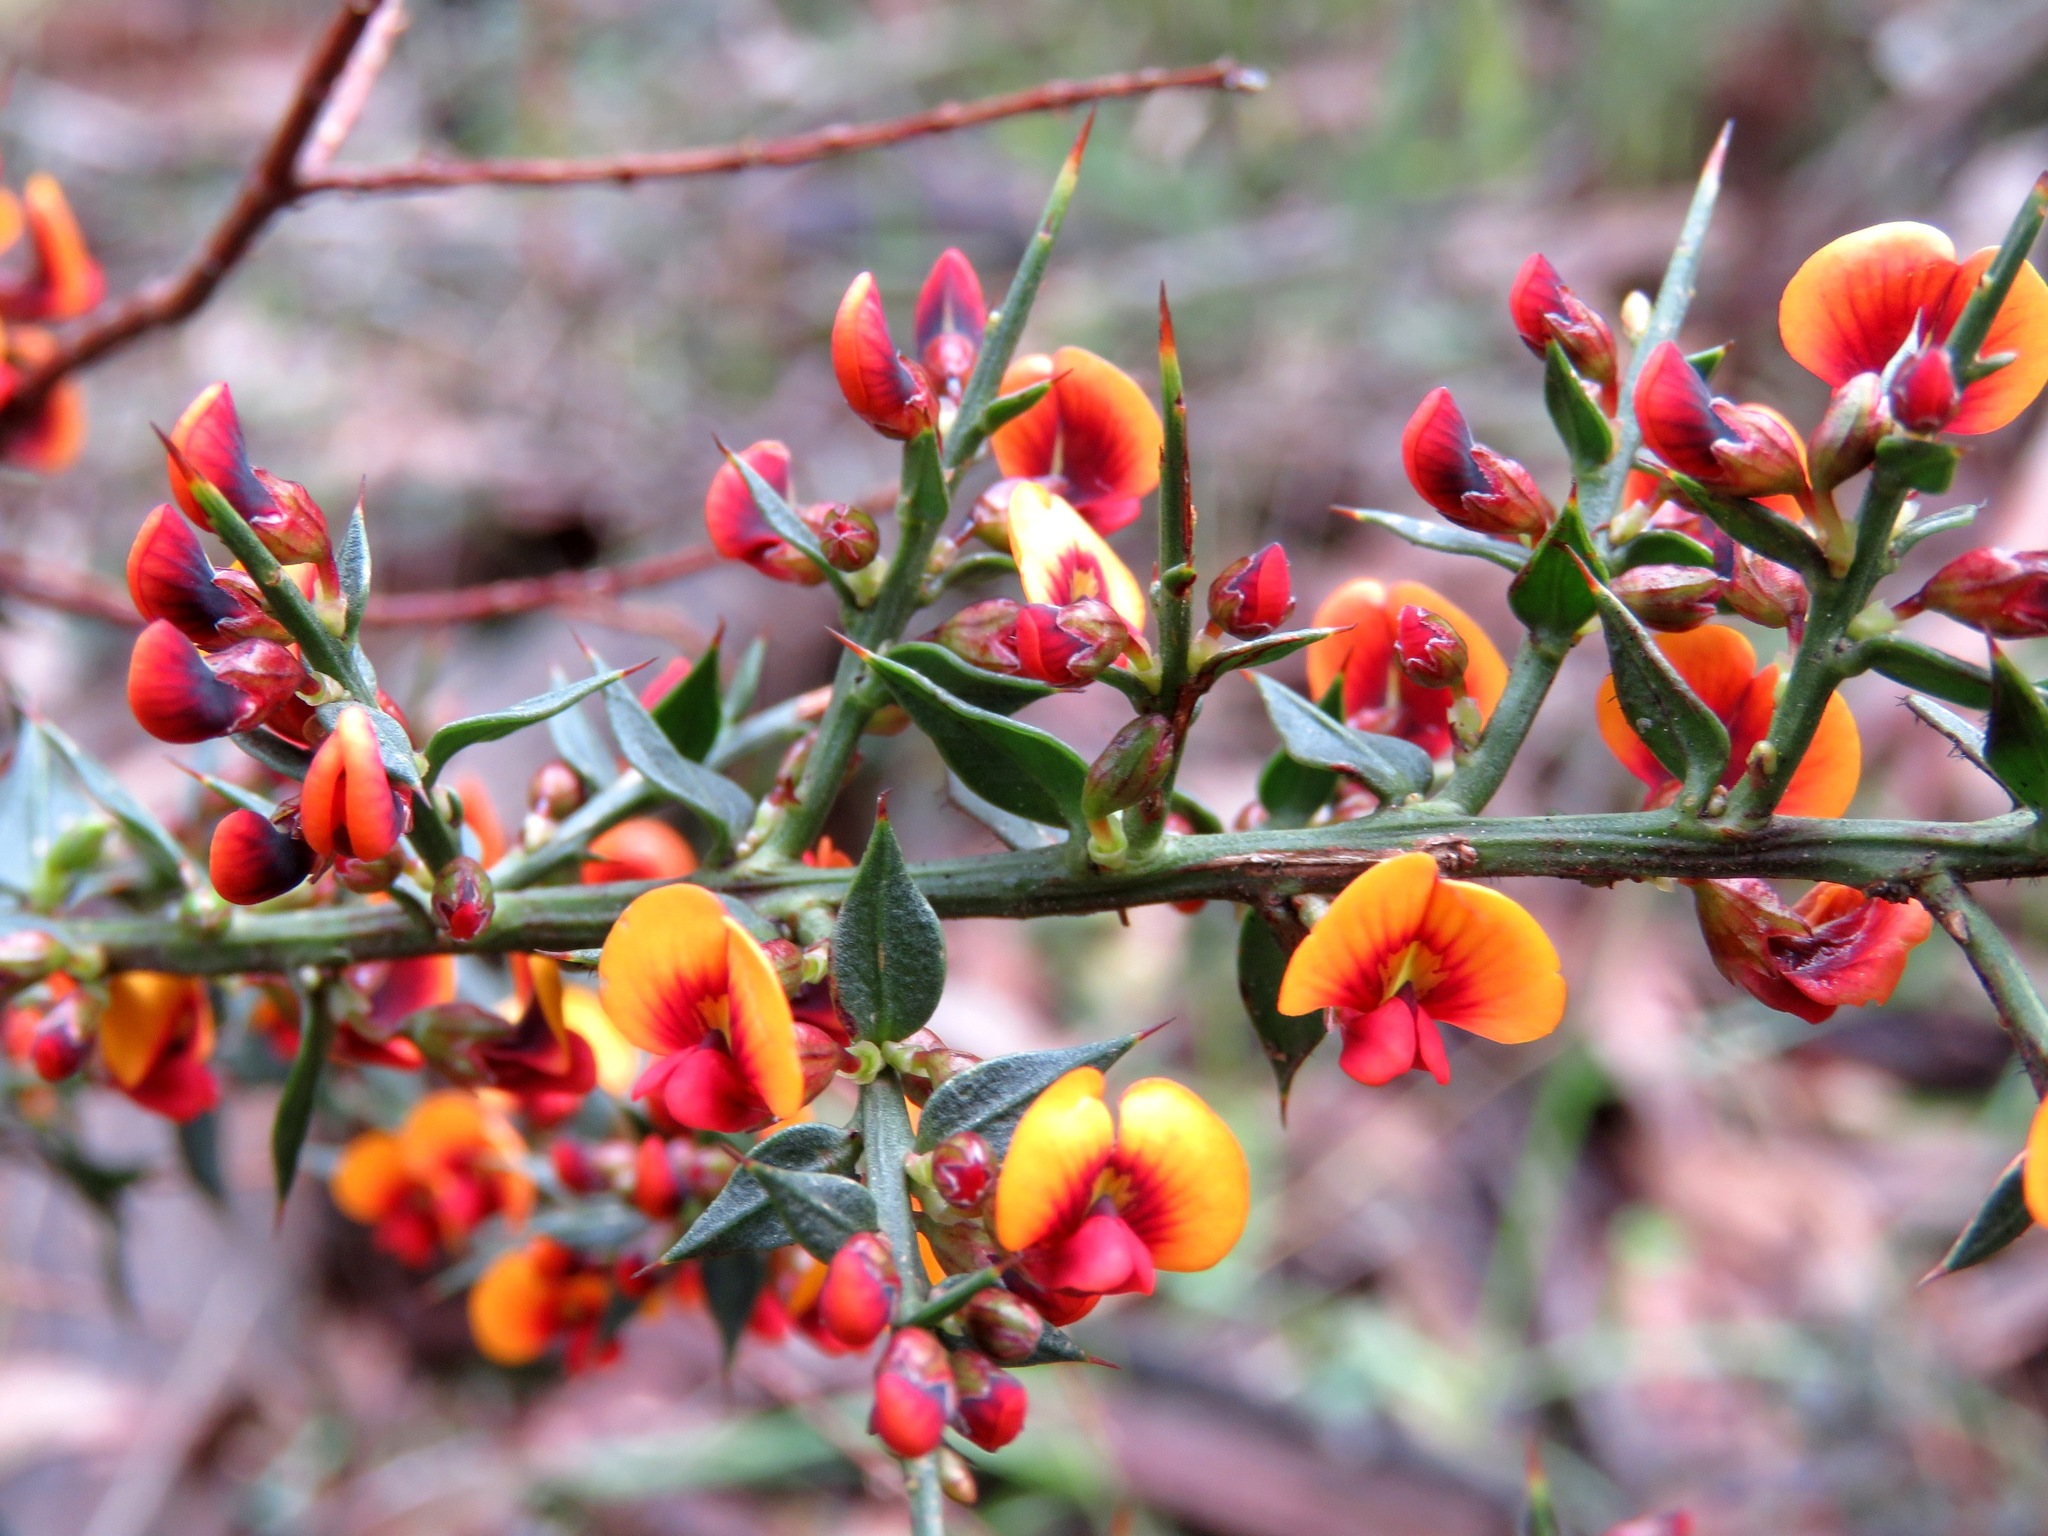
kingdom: Plantae
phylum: Tracheophyta
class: Magnoliopsida
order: Fabales
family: Fabaceae
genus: Daviesia
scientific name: Daviesia ulicifolia
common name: Gorse bitter-pea
